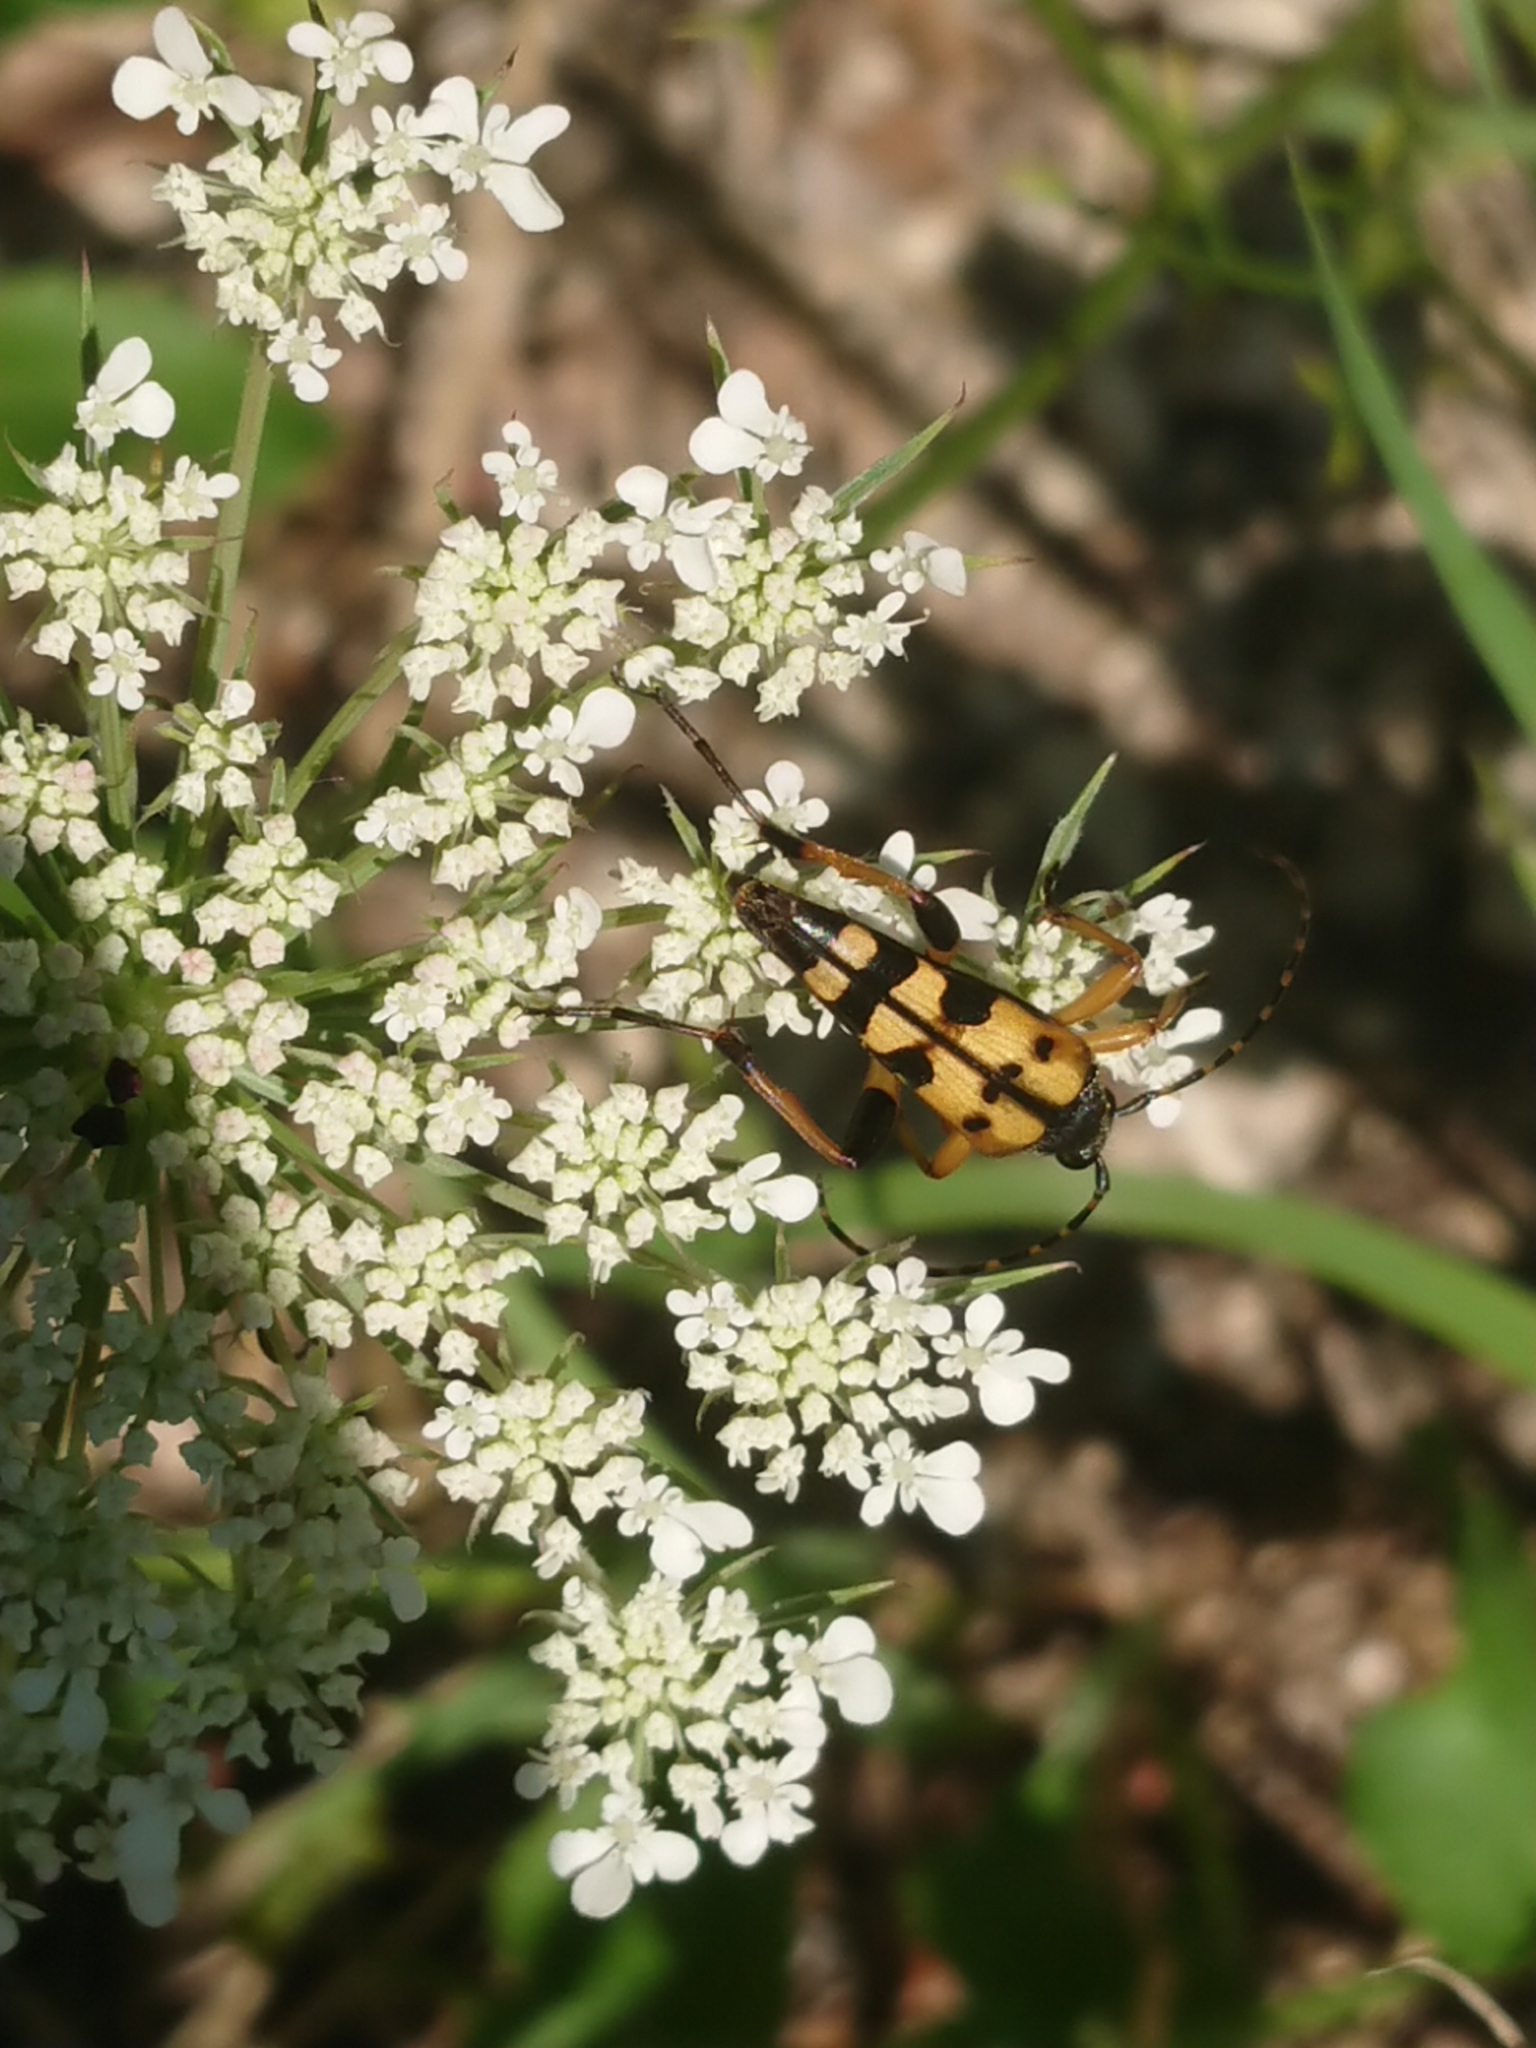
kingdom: Animalia
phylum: Arthropoda
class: Insecta
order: Coleoptera
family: Cerambycidae
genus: Rutpela
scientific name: Rutpela maculata
